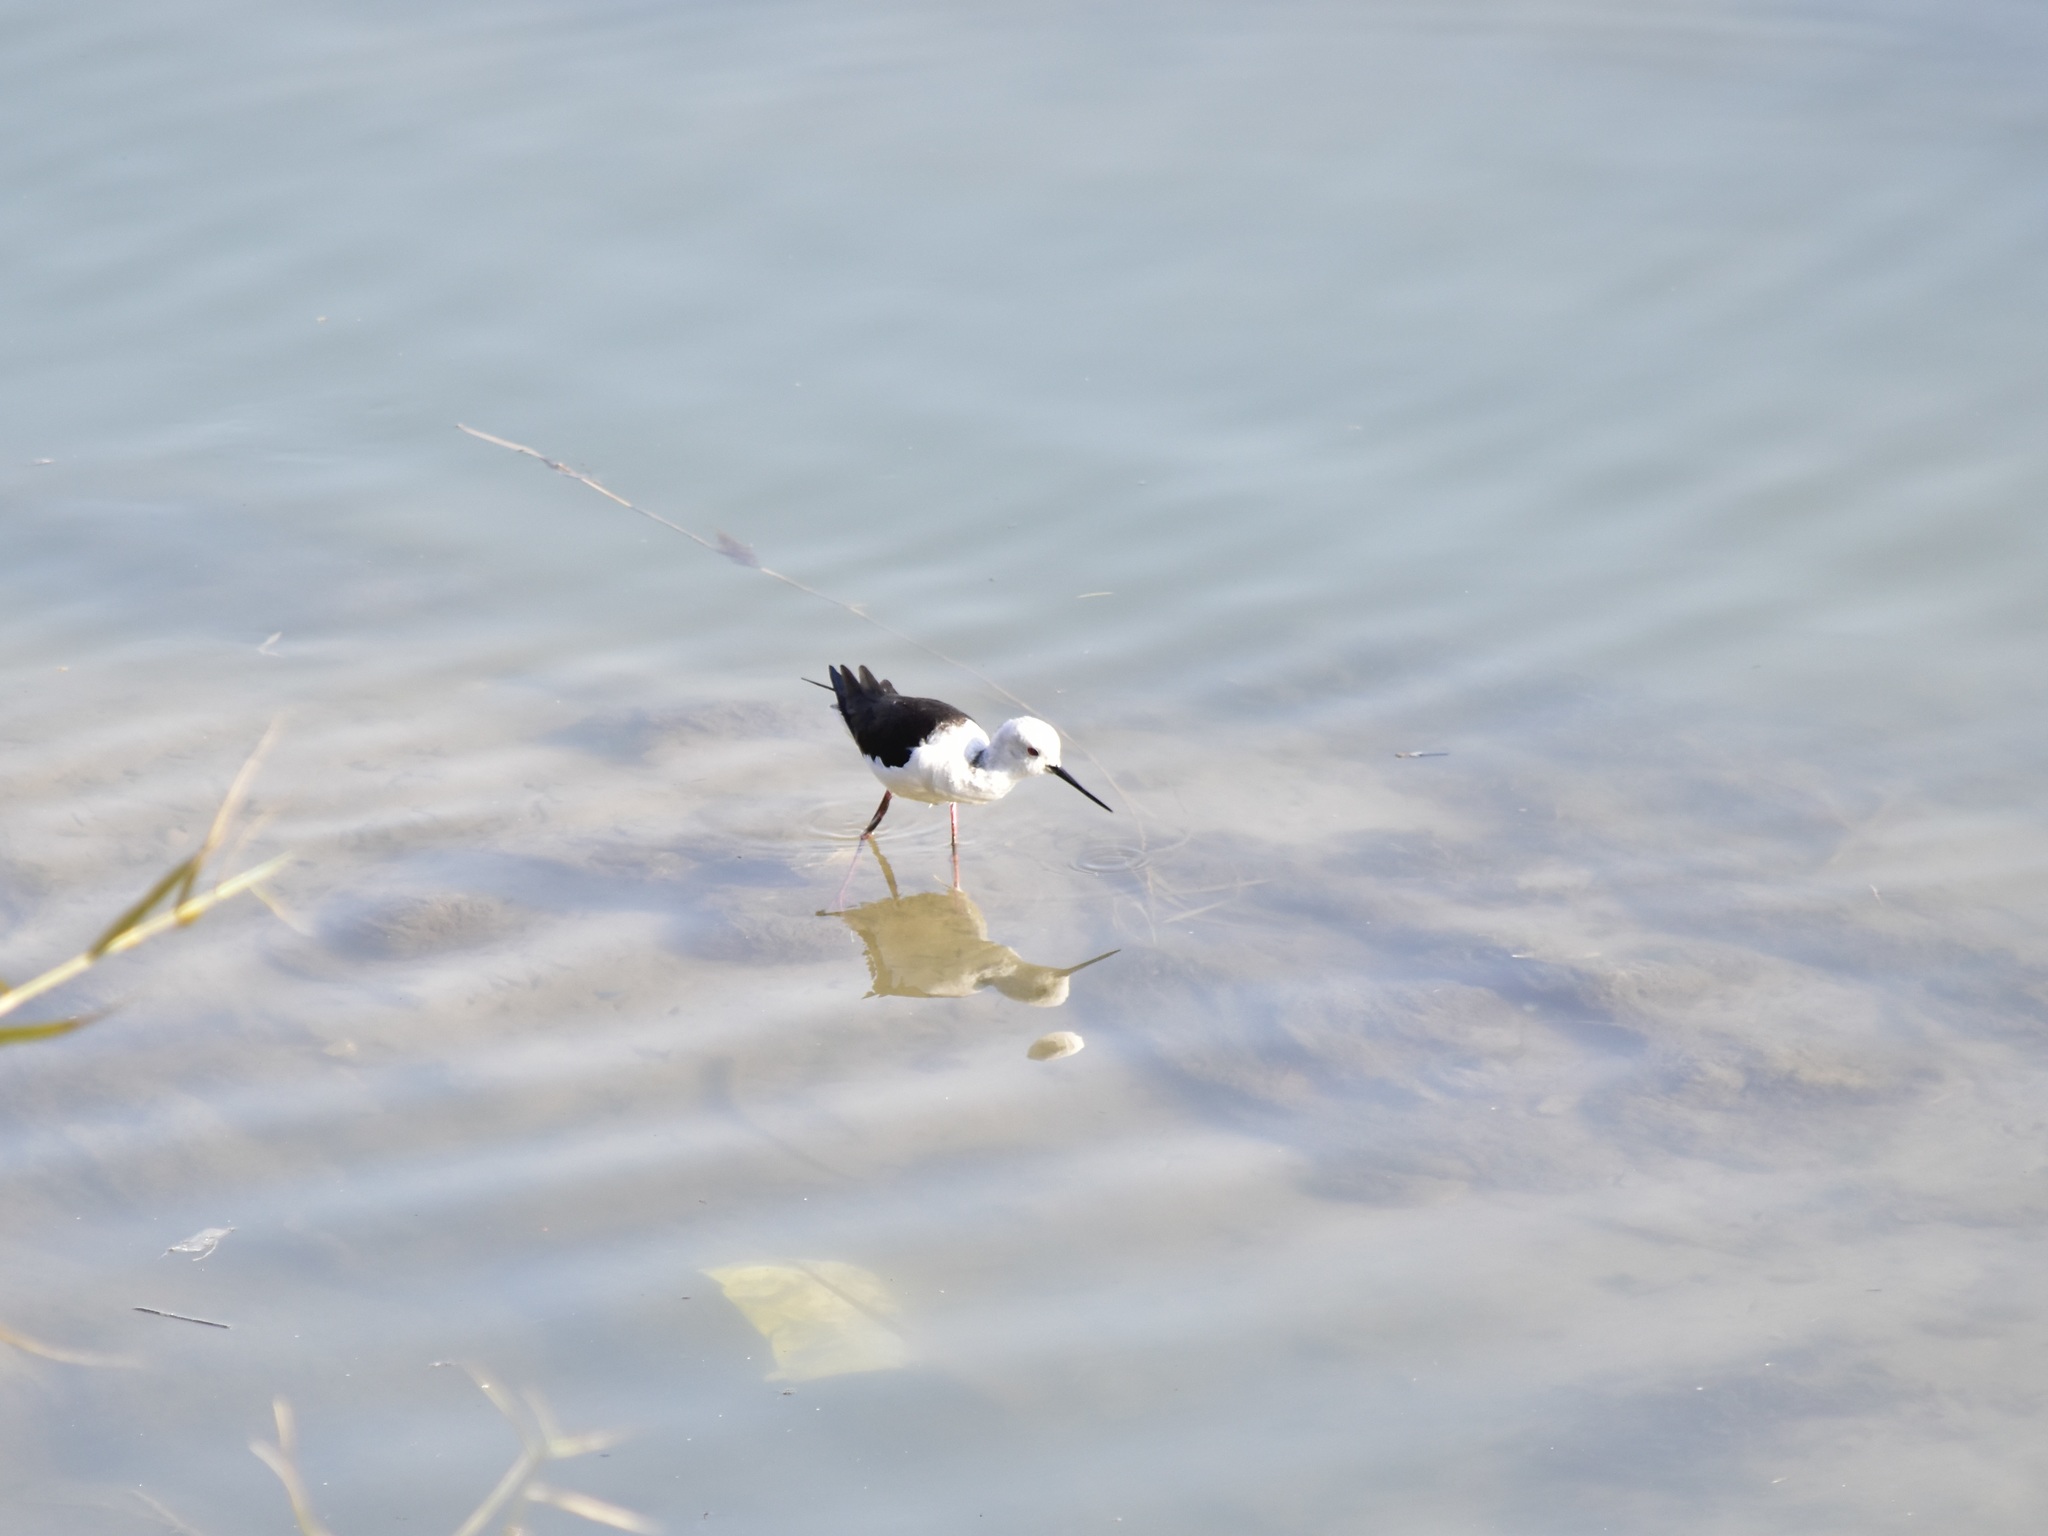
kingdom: Animalia
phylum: Chordata
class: Aves
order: Charadriiformes
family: Recurvirostridae
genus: Himantopus
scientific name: Himantopus himantopus
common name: Black-winged stilt
